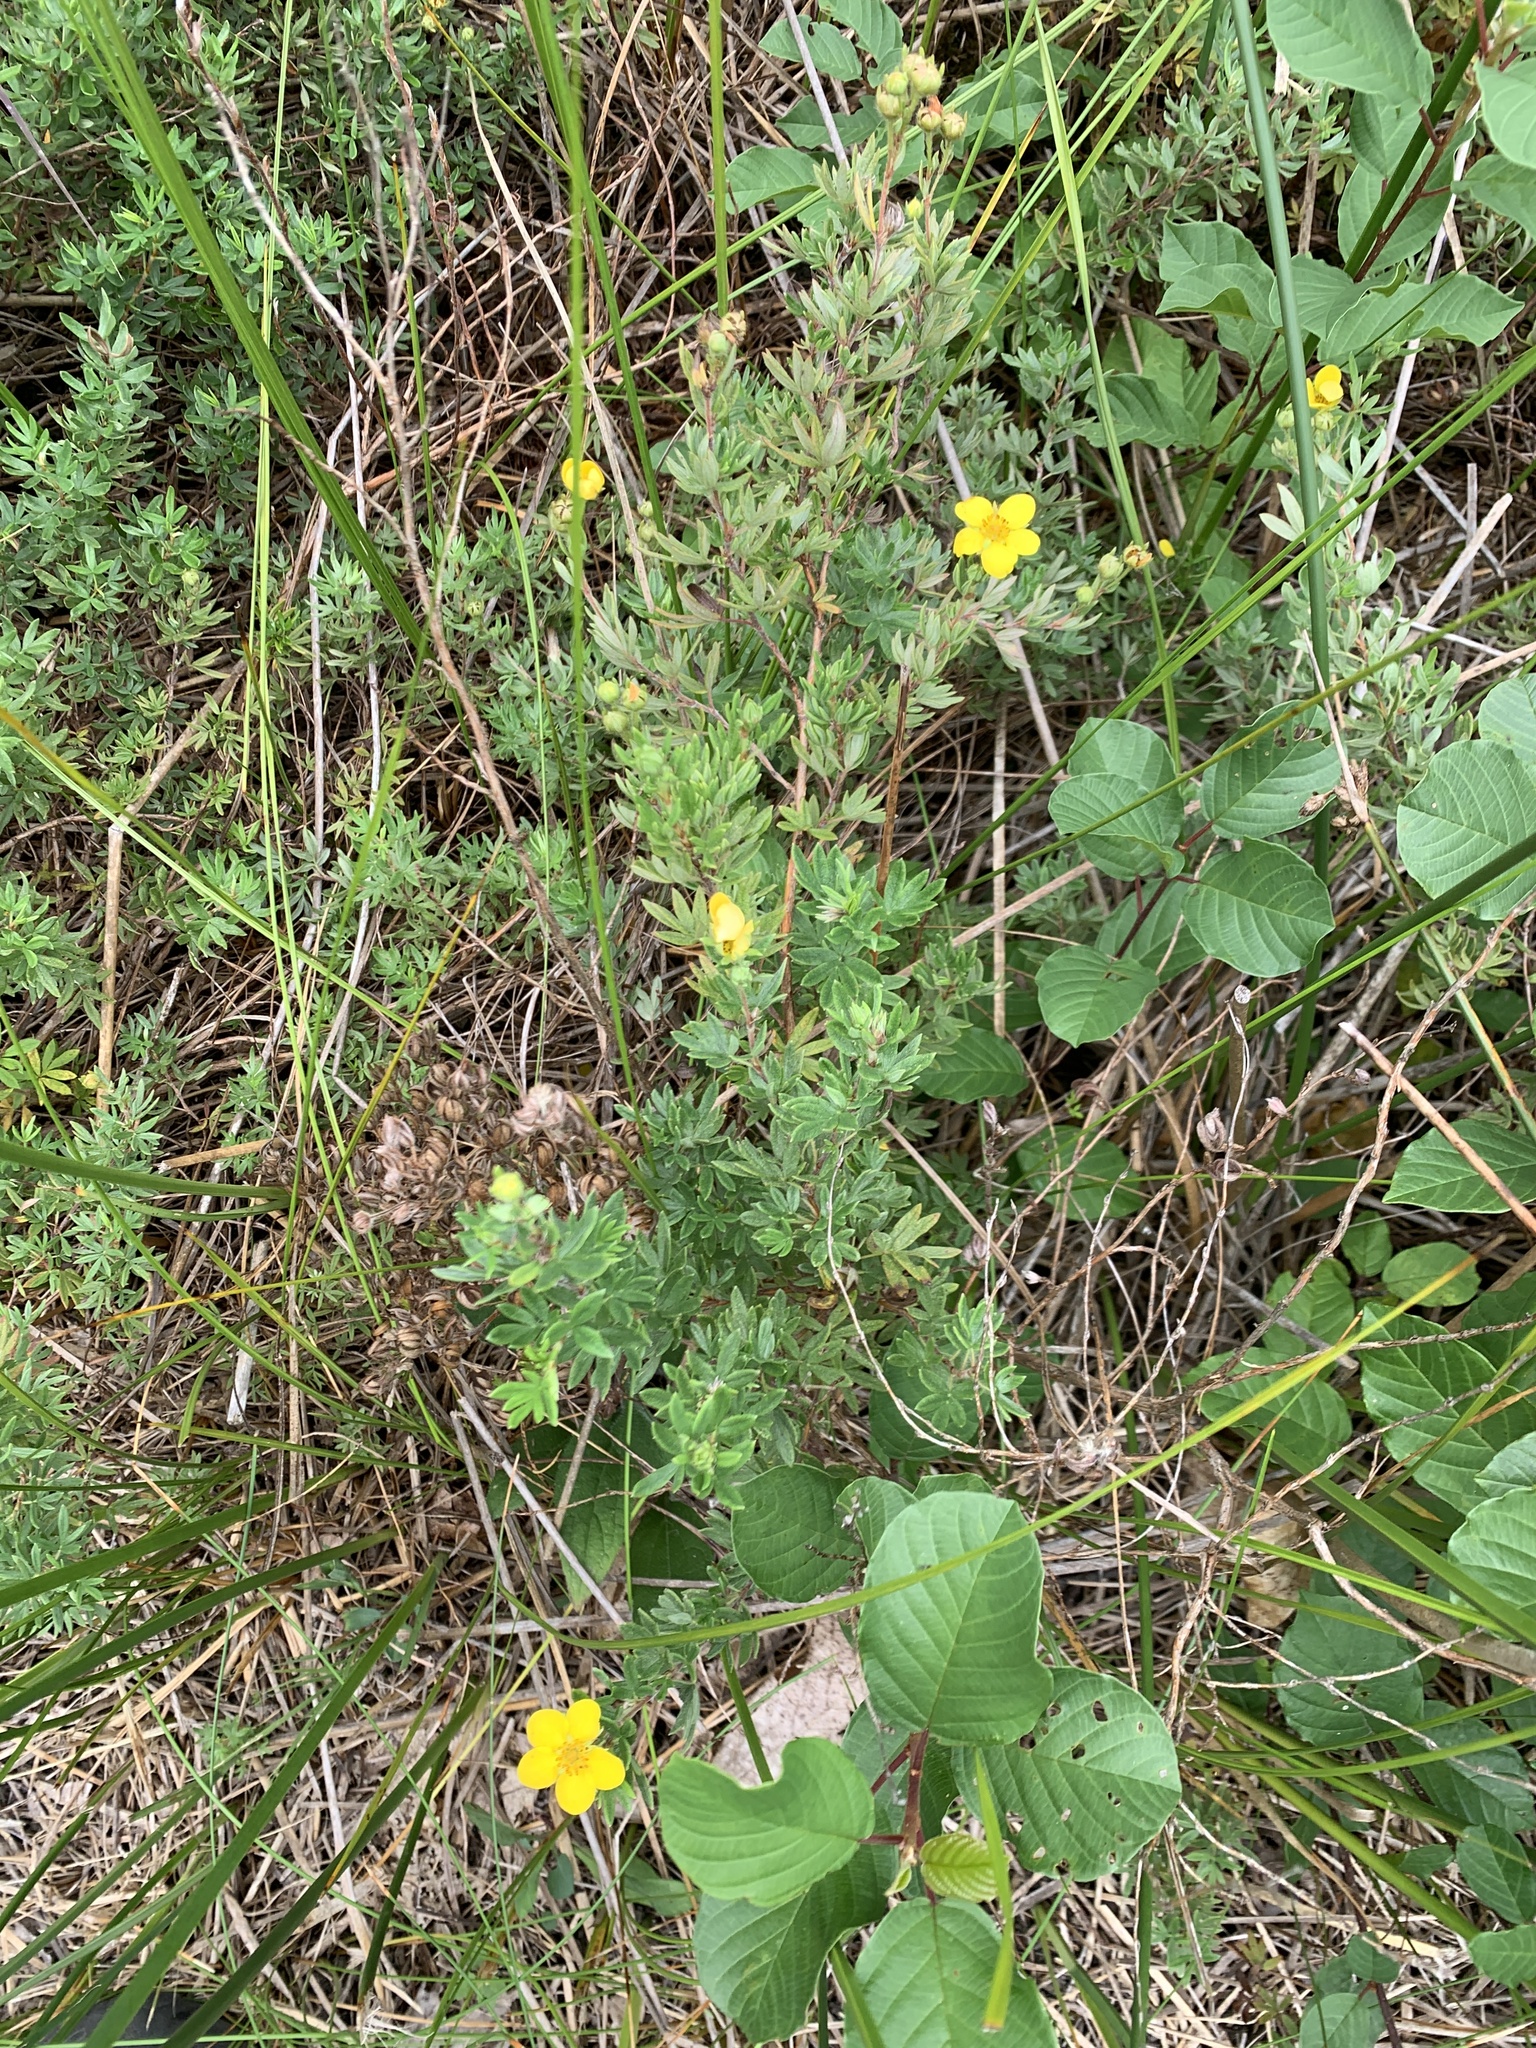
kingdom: Plantae
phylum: Tracheophyta
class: Magnoliopsida
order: Rosales
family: Rosaceae
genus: Dasiphora
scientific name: Dasiphora fruticosa
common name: Shrubby cinquefoil
